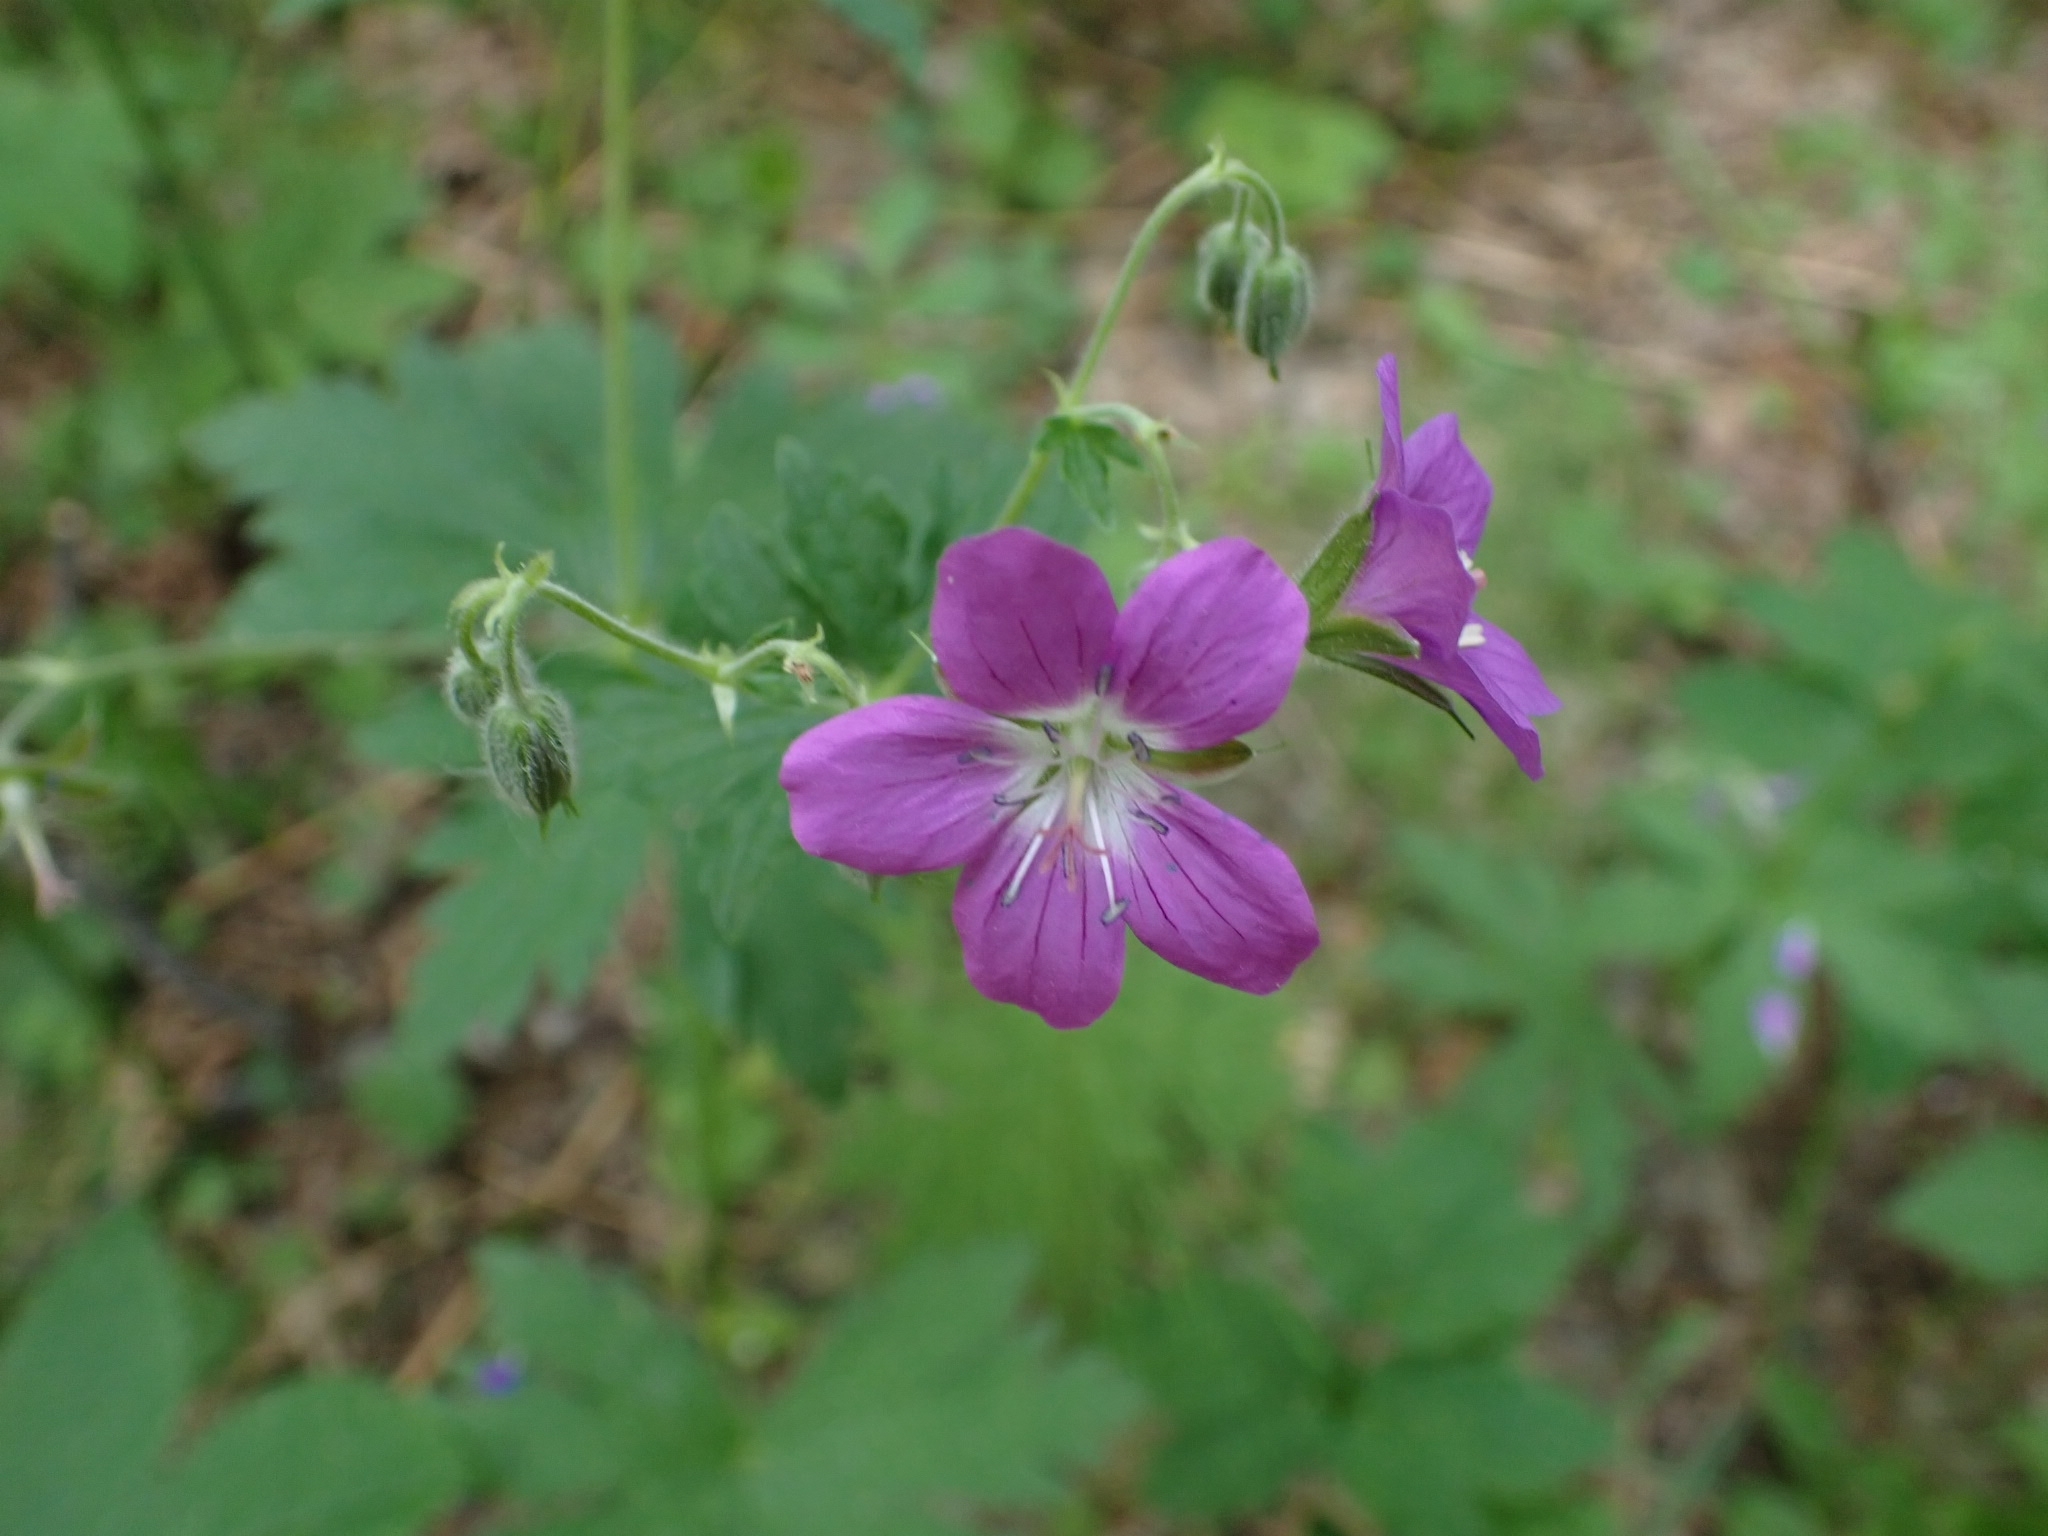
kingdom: Plantae
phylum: Tracheophyta
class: Magnoliopsida
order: Geraniales
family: Geraniaceae
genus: Geranium
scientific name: Geranium sylvaticum
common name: Wood crane's-bill
